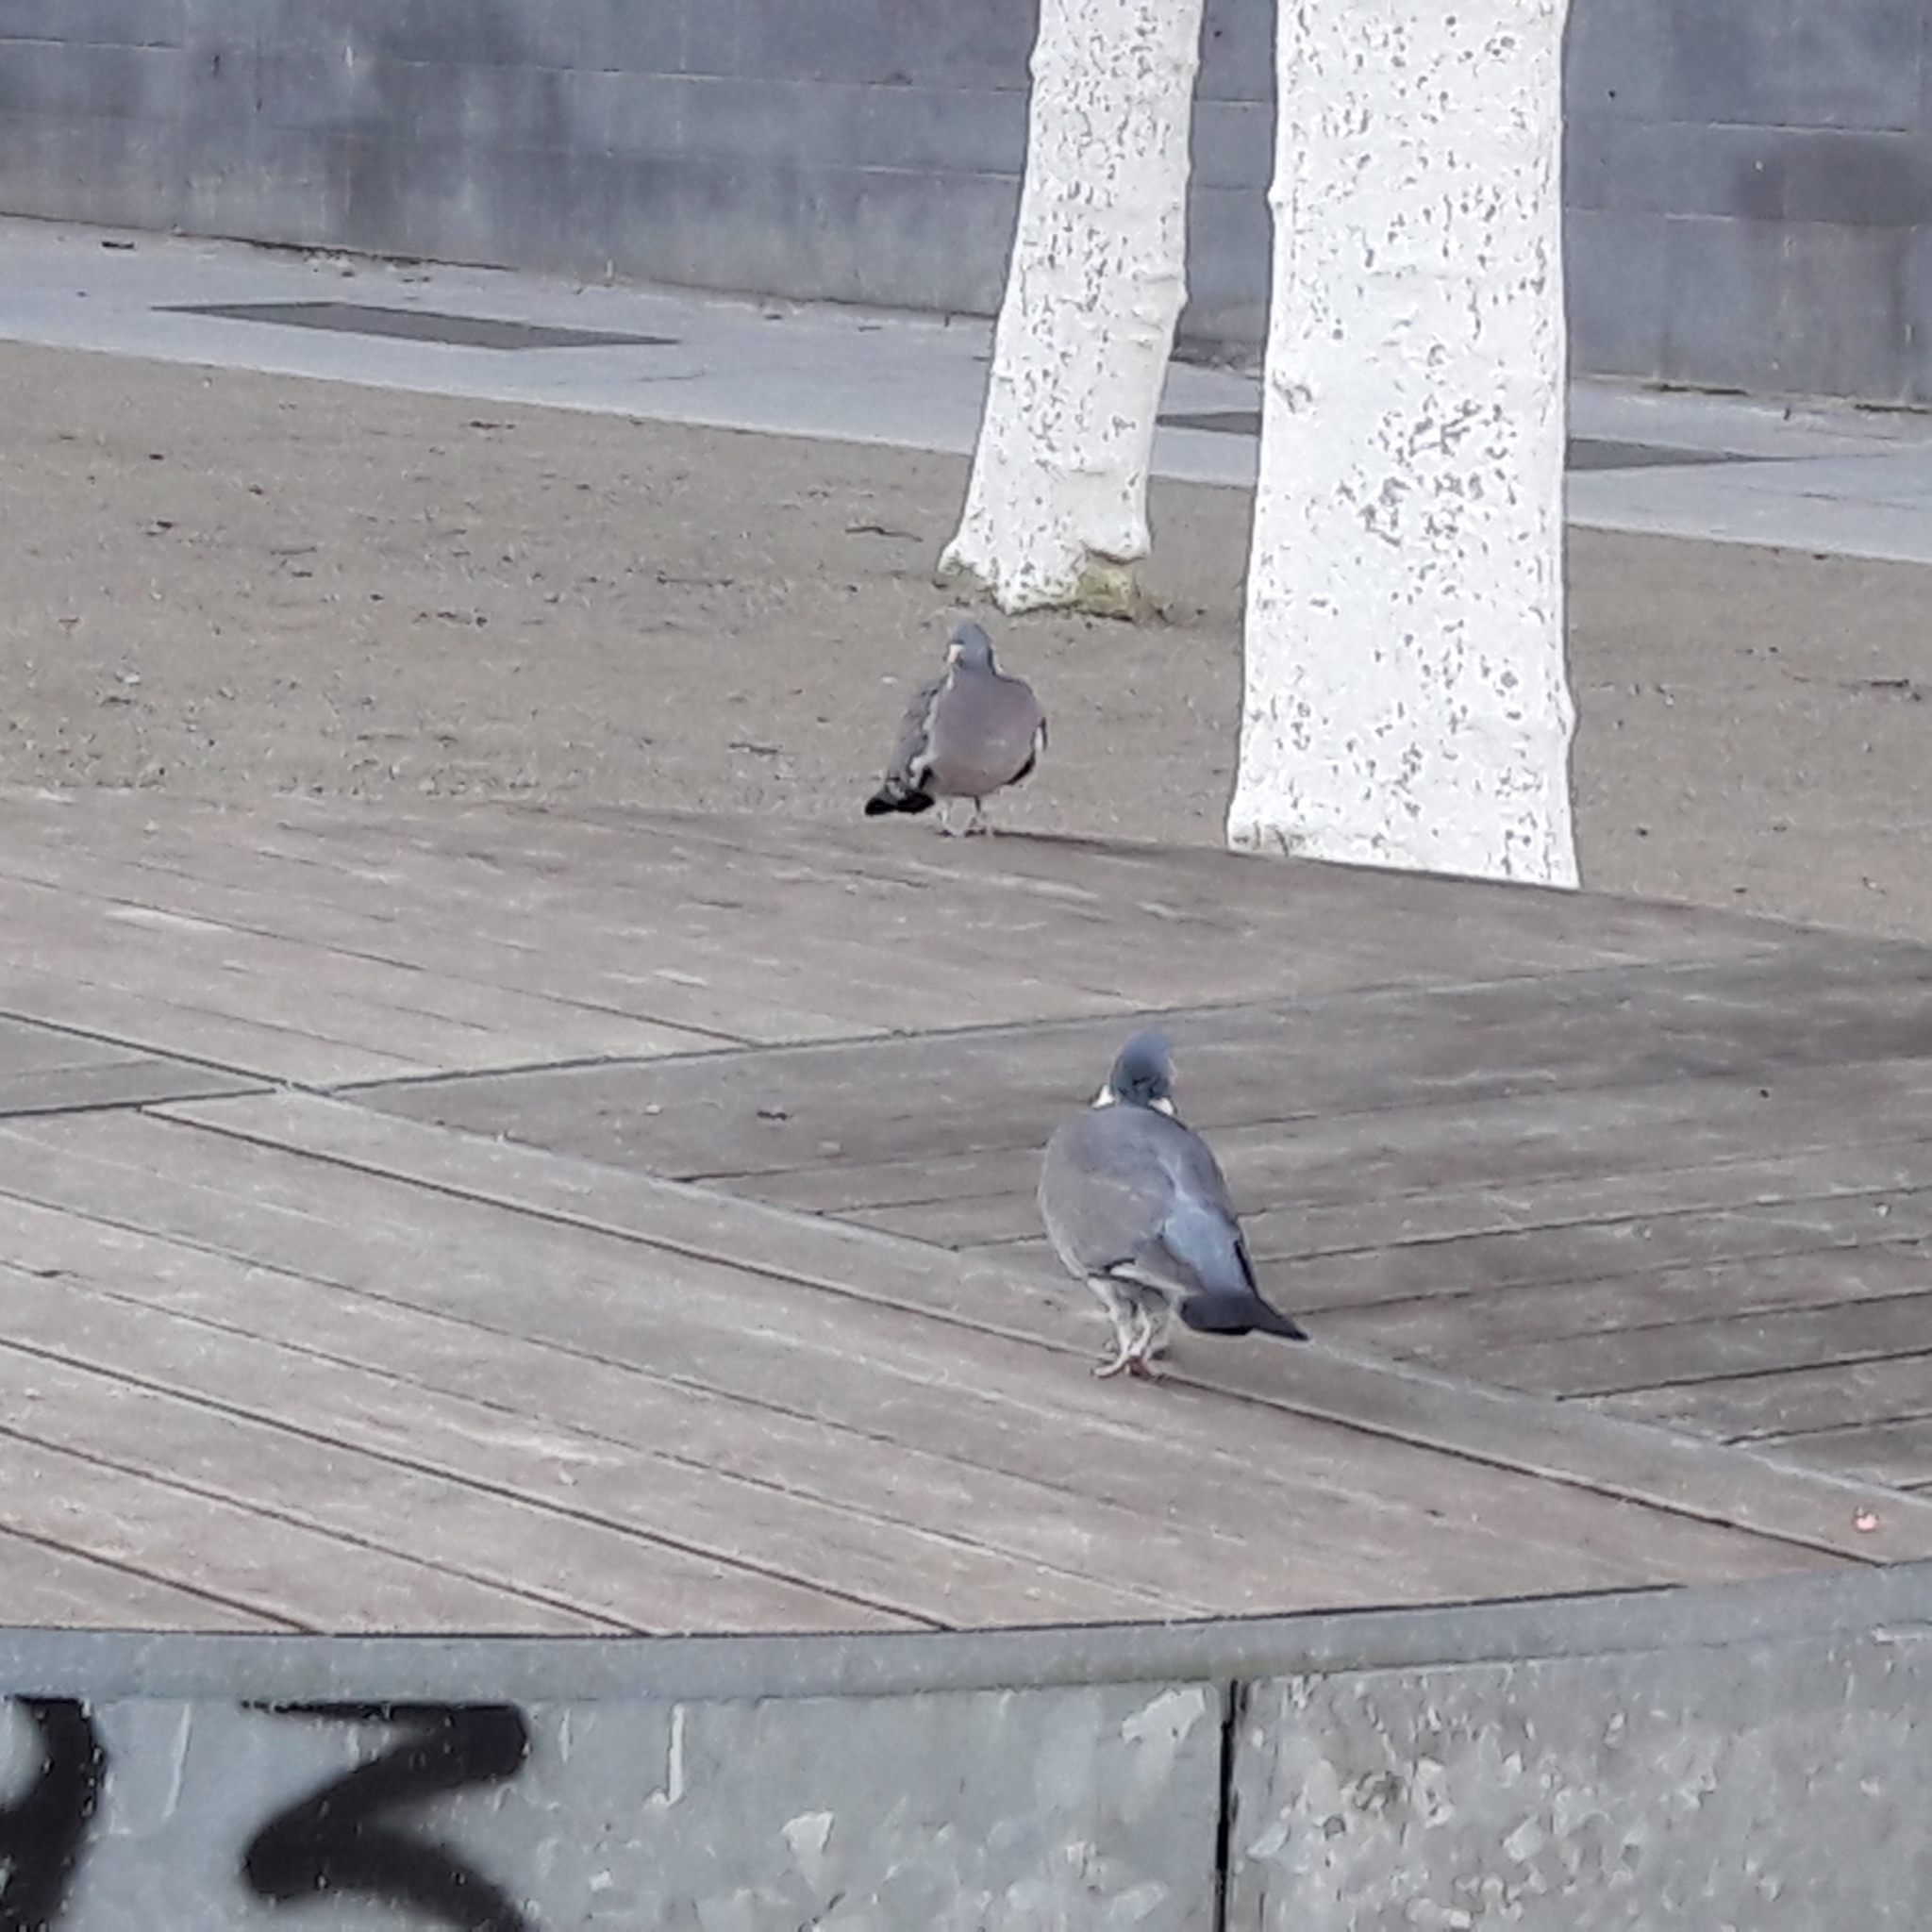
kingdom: Animalia
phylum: Chordata
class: Aves
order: Columbiformes
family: Columbidae
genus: Columba
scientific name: Columba palumbus
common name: Common wood pigeon
